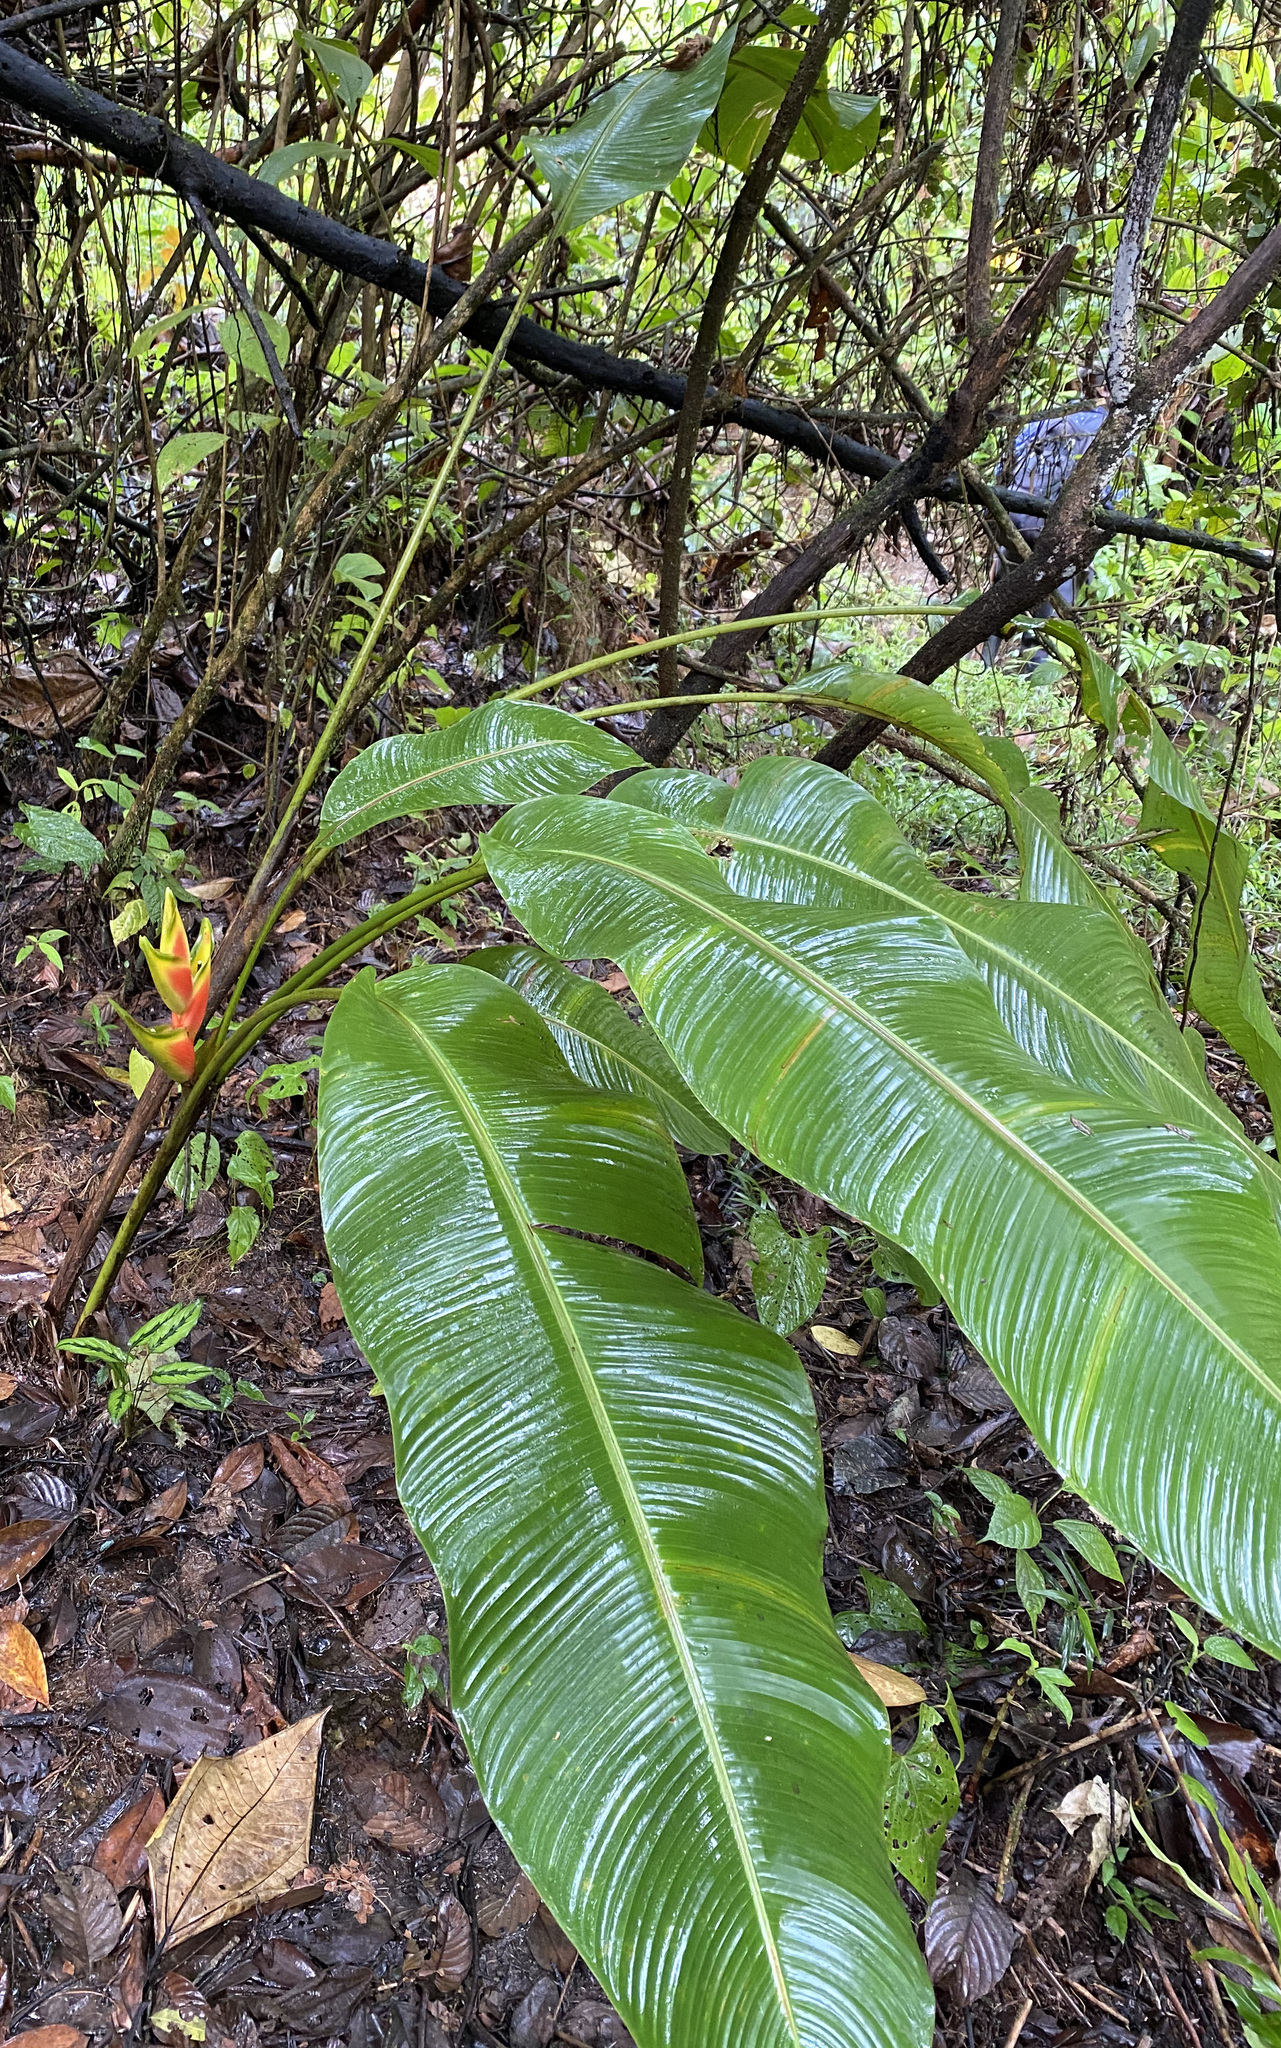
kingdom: Plantae
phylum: Tracheophyta
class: Liliopsida
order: Zingiberales
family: Heliconiaceae
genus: Heliconia
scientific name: Heliconia wagneriana
